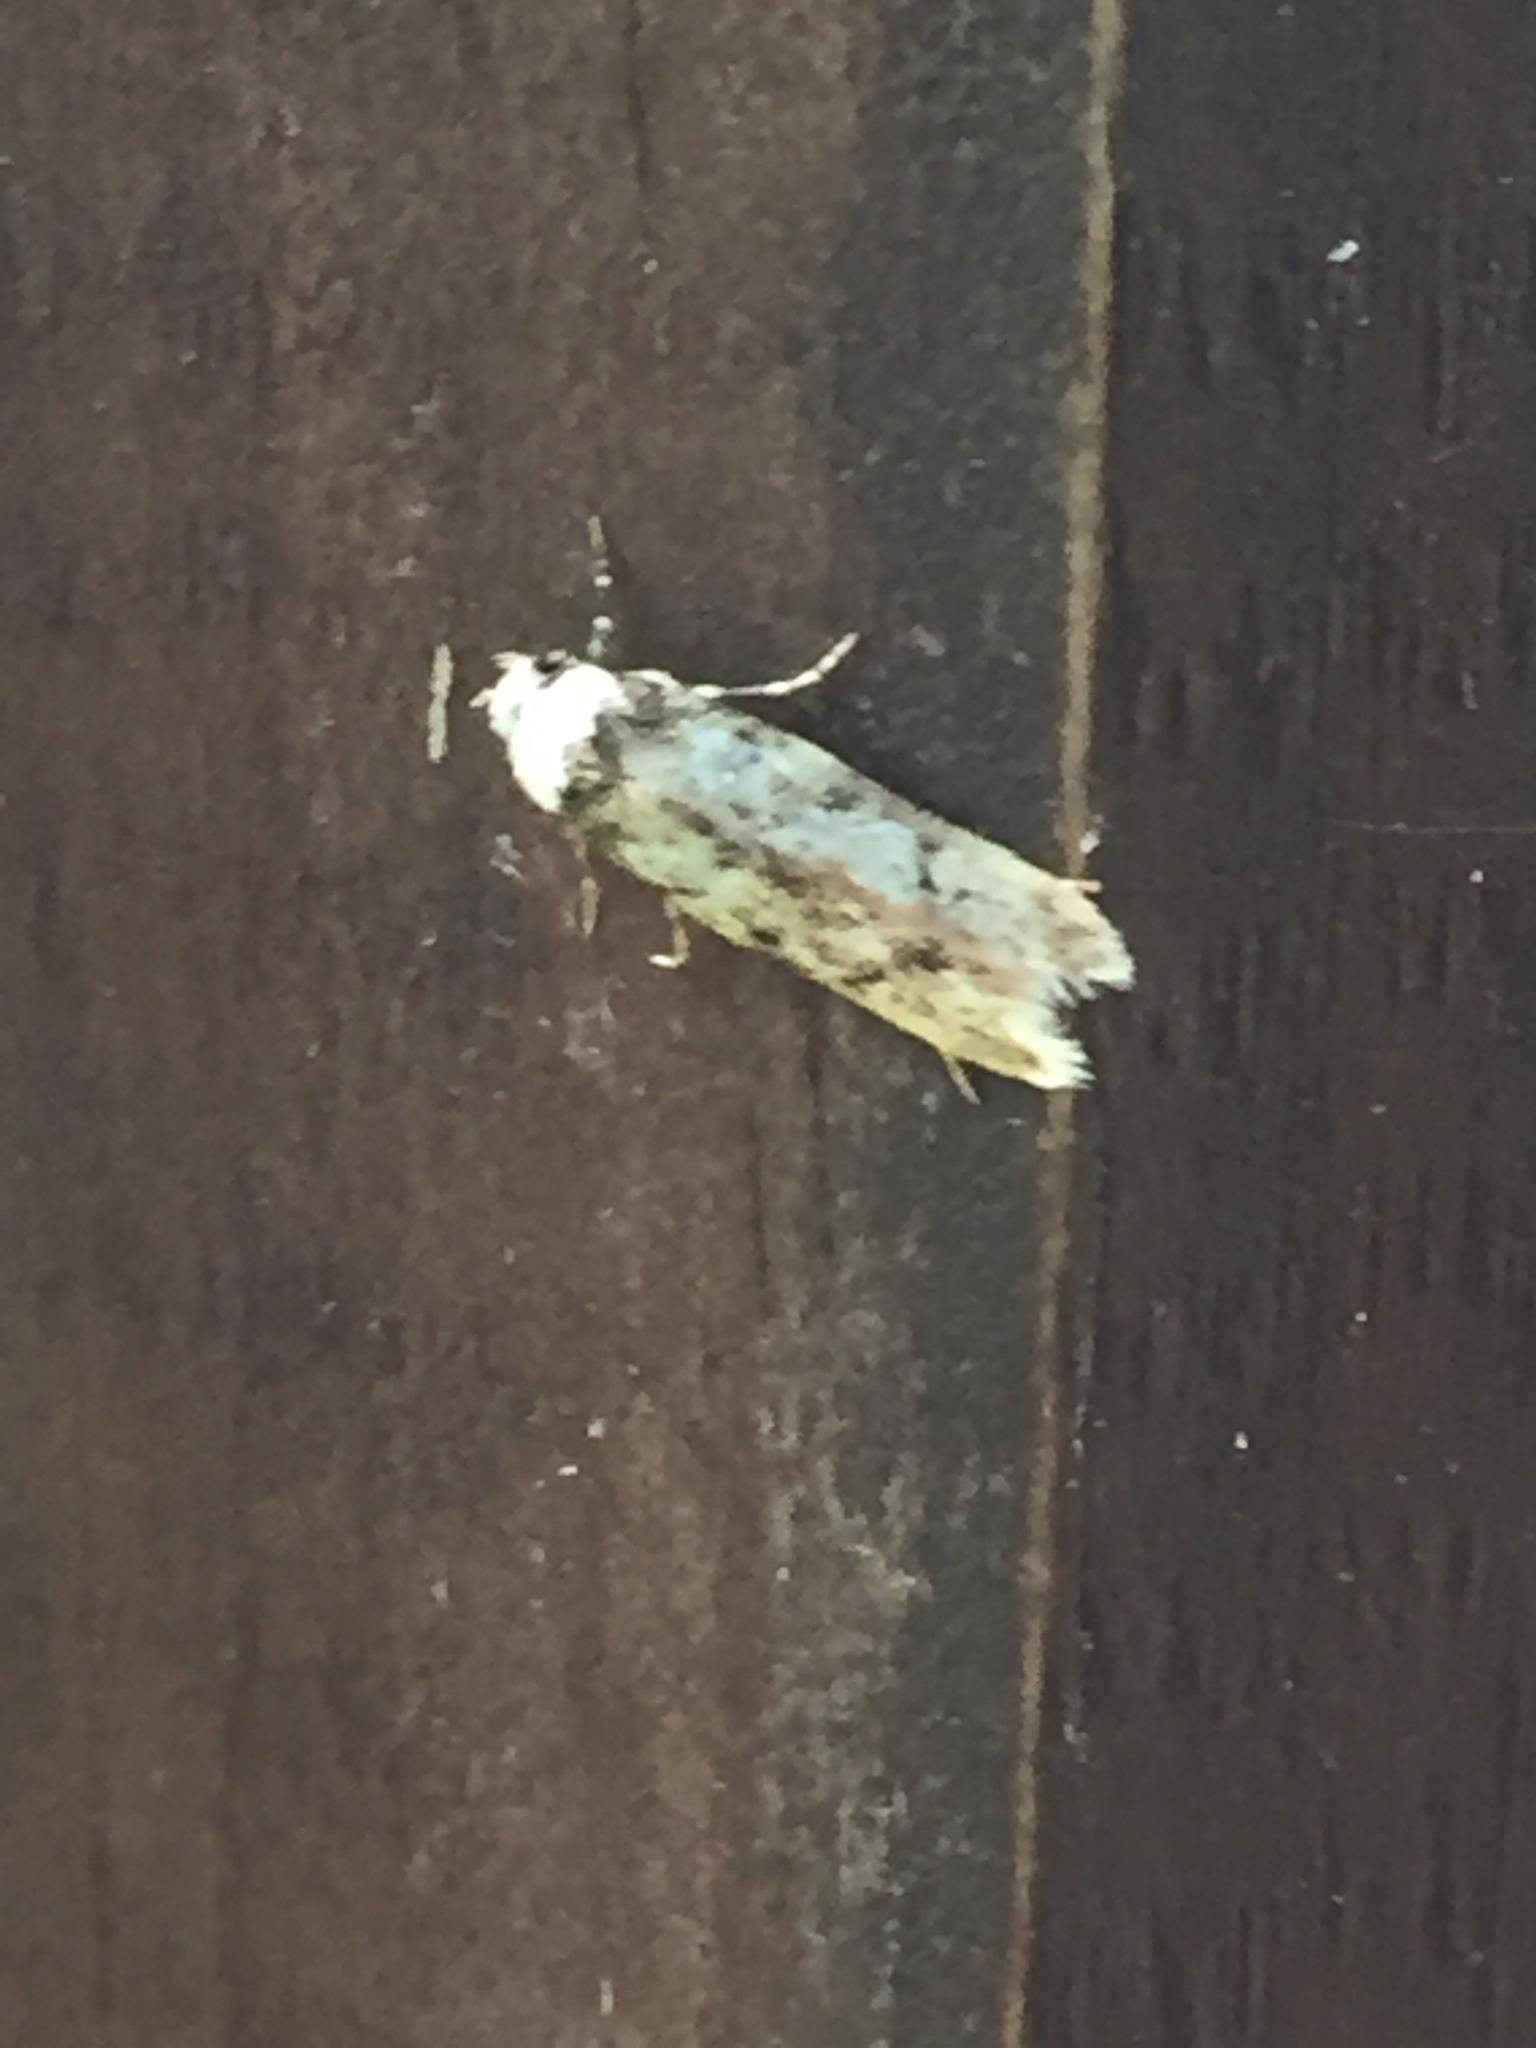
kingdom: Animalia
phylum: Arthropoda
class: Insecta
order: Lepidoptera
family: Oecophoridae
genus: Endrosis
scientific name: Endrosis sarcitrella
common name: White-shouldered house moth
